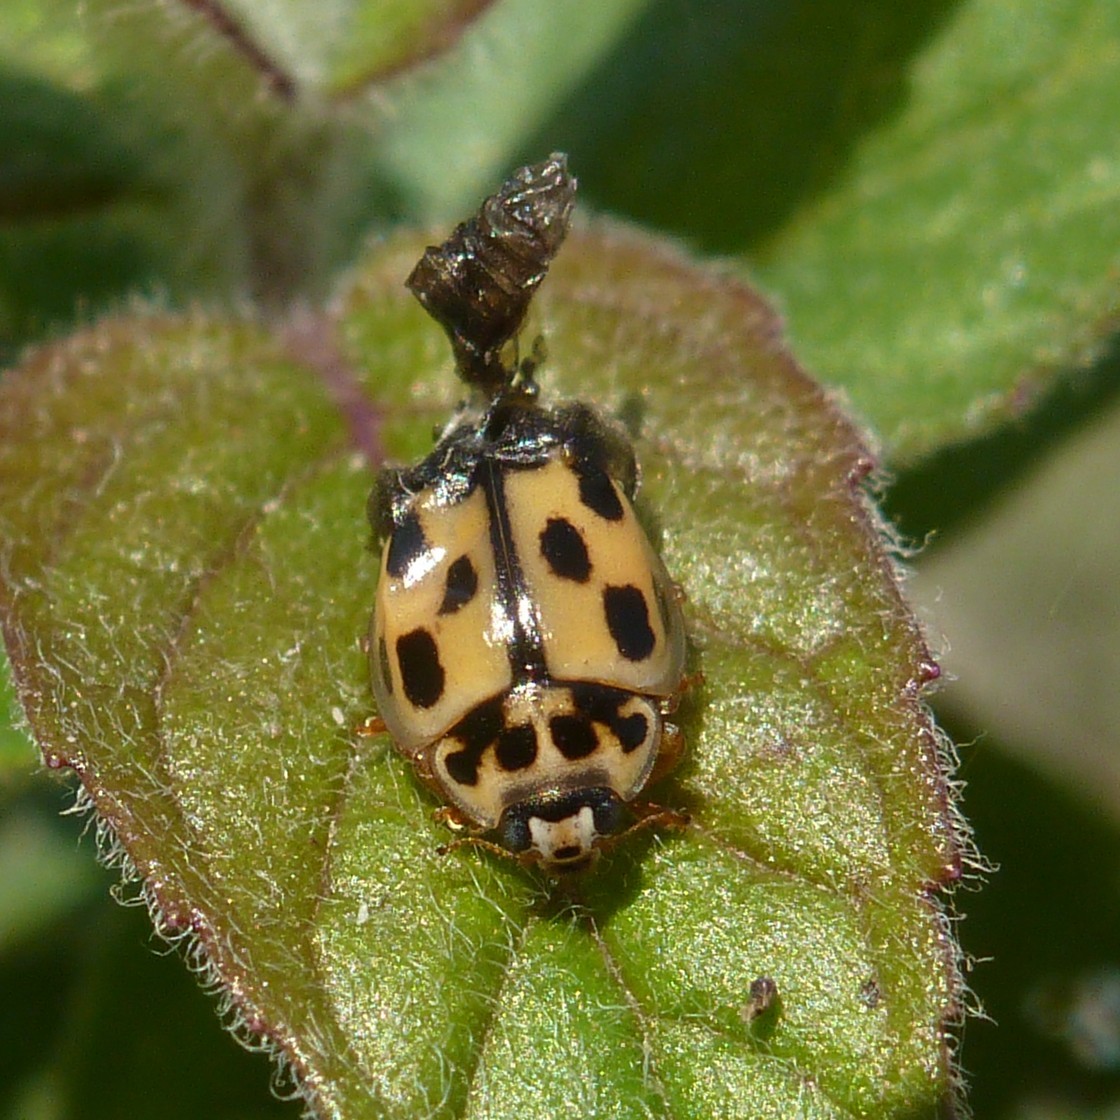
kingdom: Animalia
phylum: Arthropoda
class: Insecta
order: Coleoptera
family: Coccinellidae
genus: Propylaea
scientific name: Propylaea quatuordecimpunctata
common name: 14-spotted ladybird beetle
